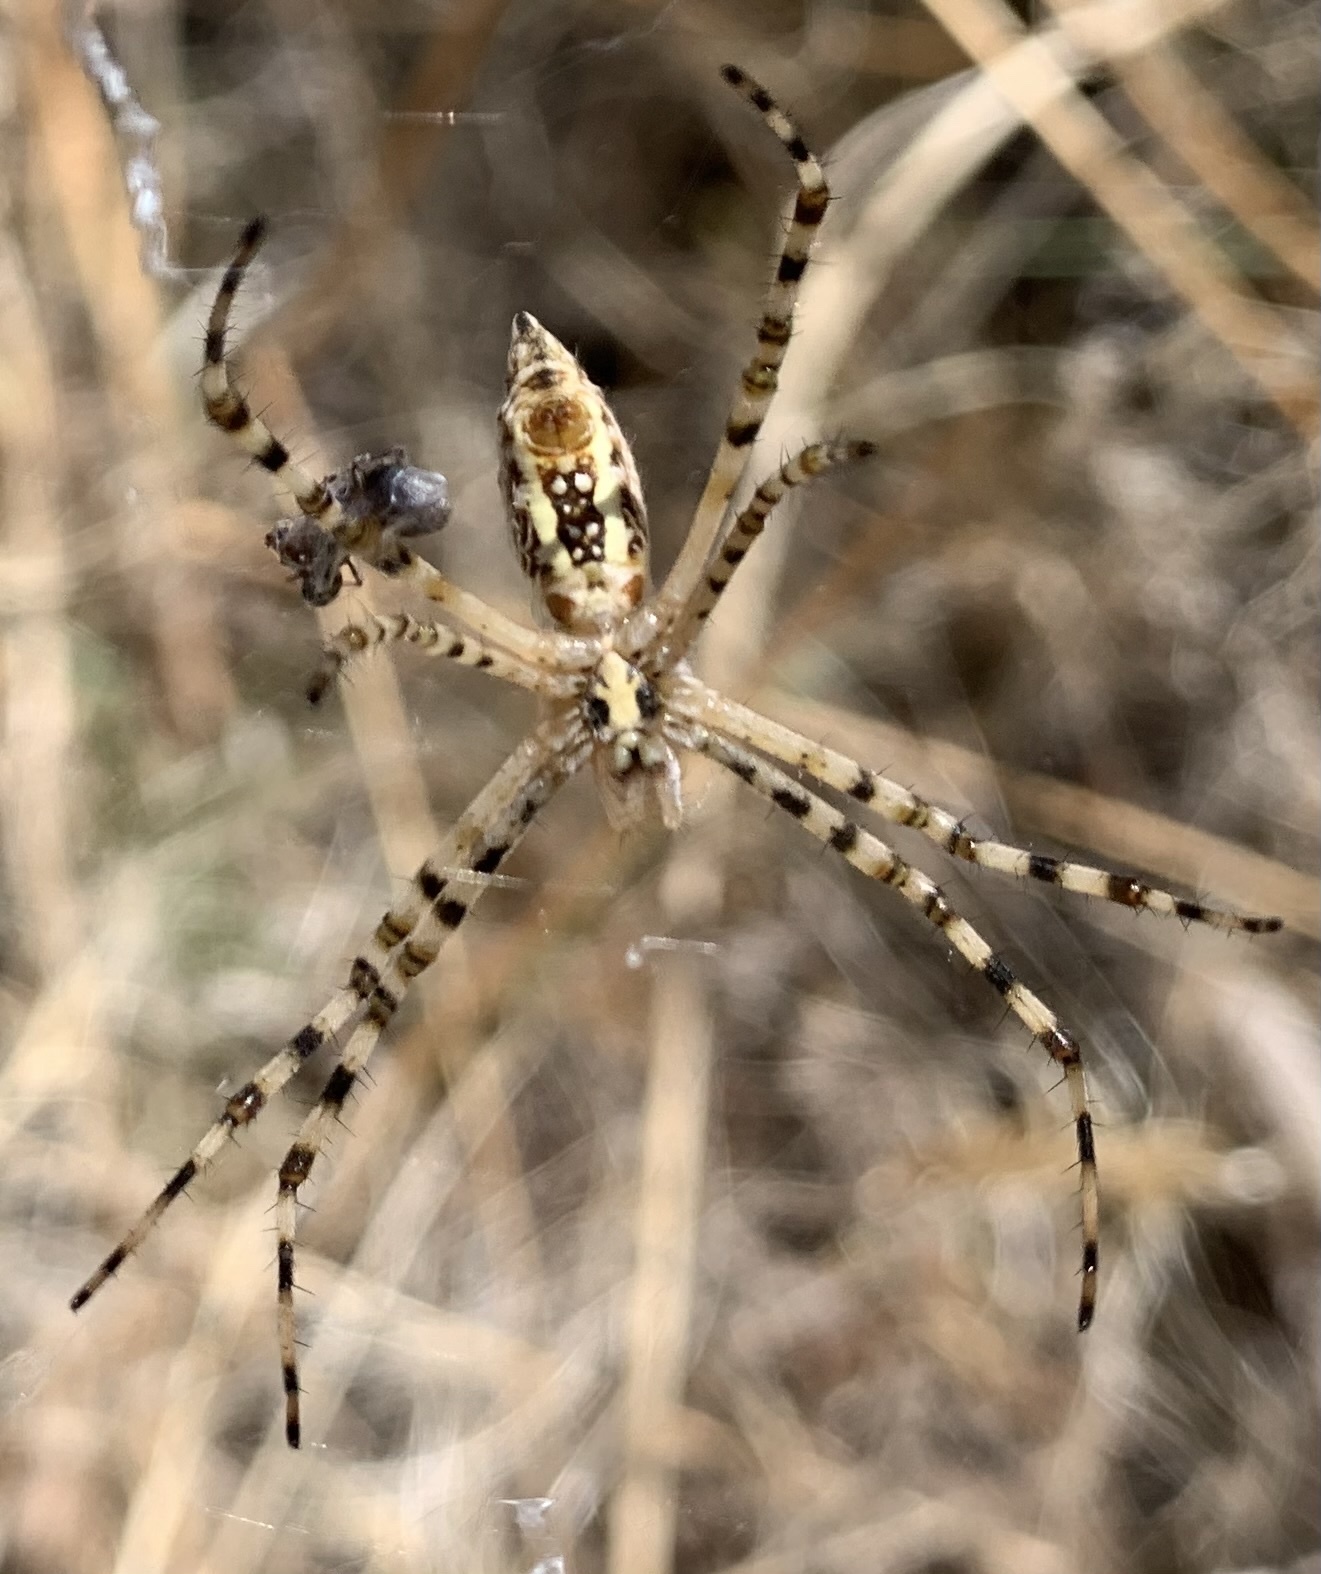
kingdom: Animalia
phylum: Arthropoda
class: Arachnida
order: Araneae
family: Araneidae
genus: Argiope
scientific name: Argiope trifasciata
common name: Banded garden spider
